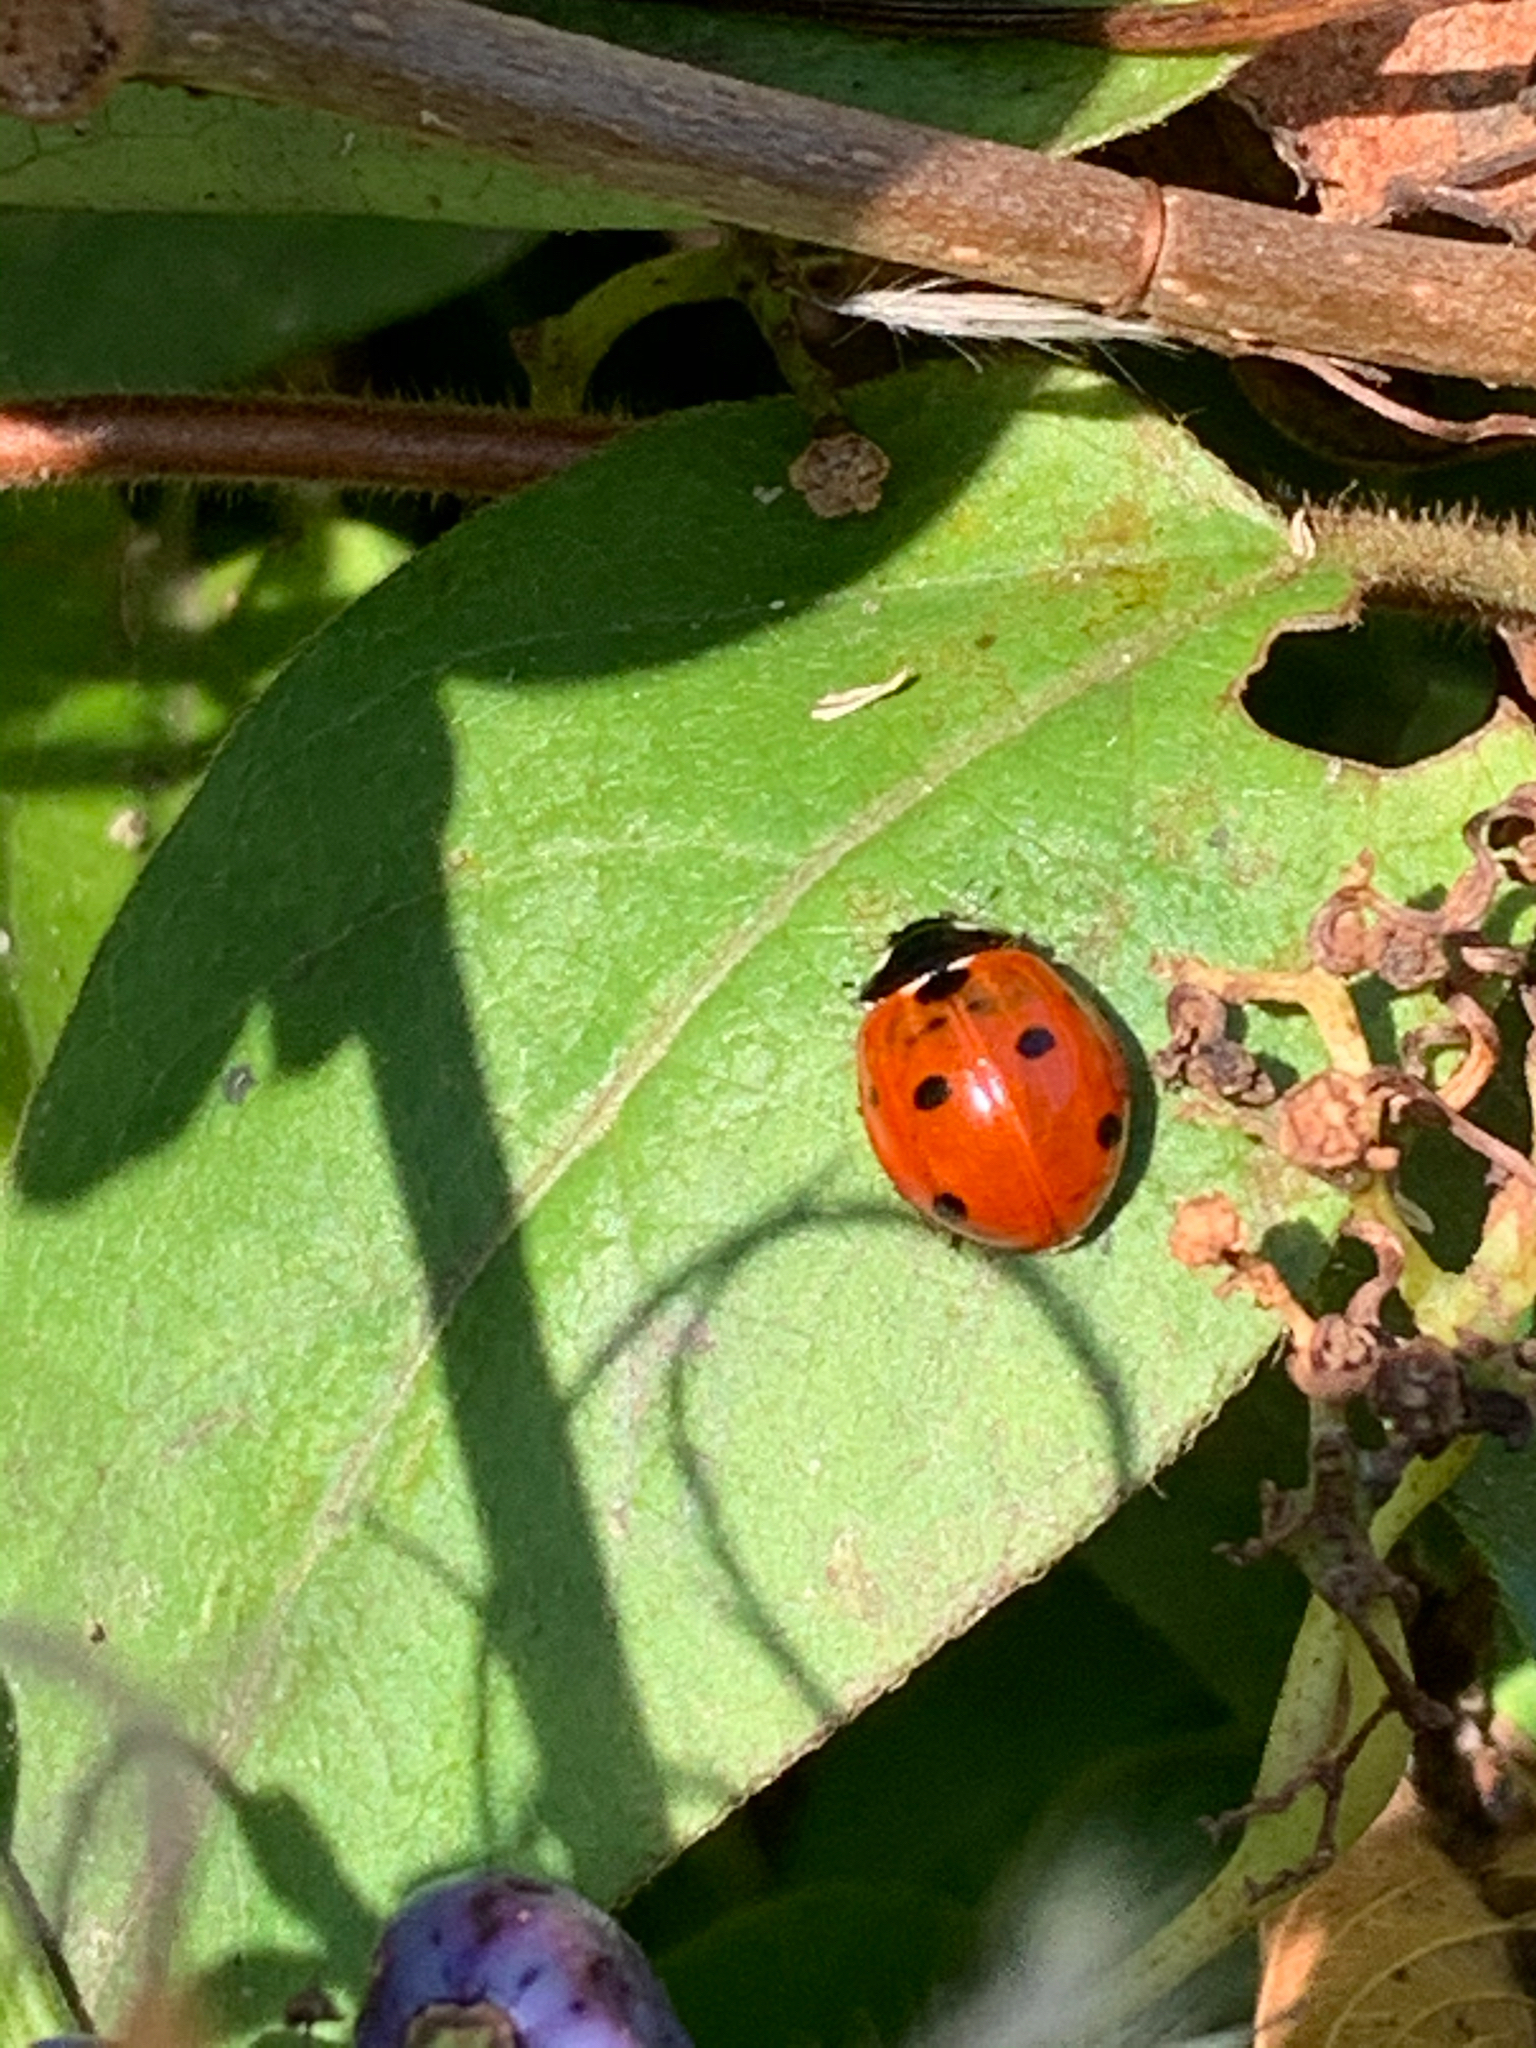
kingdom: Animalia
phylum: Arthropoda
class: Insecta
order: Coleoptera
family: Coccinellidae
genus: Coccinella
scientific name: Coccinella septempunctata
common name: Sevenspotted lady beetle
